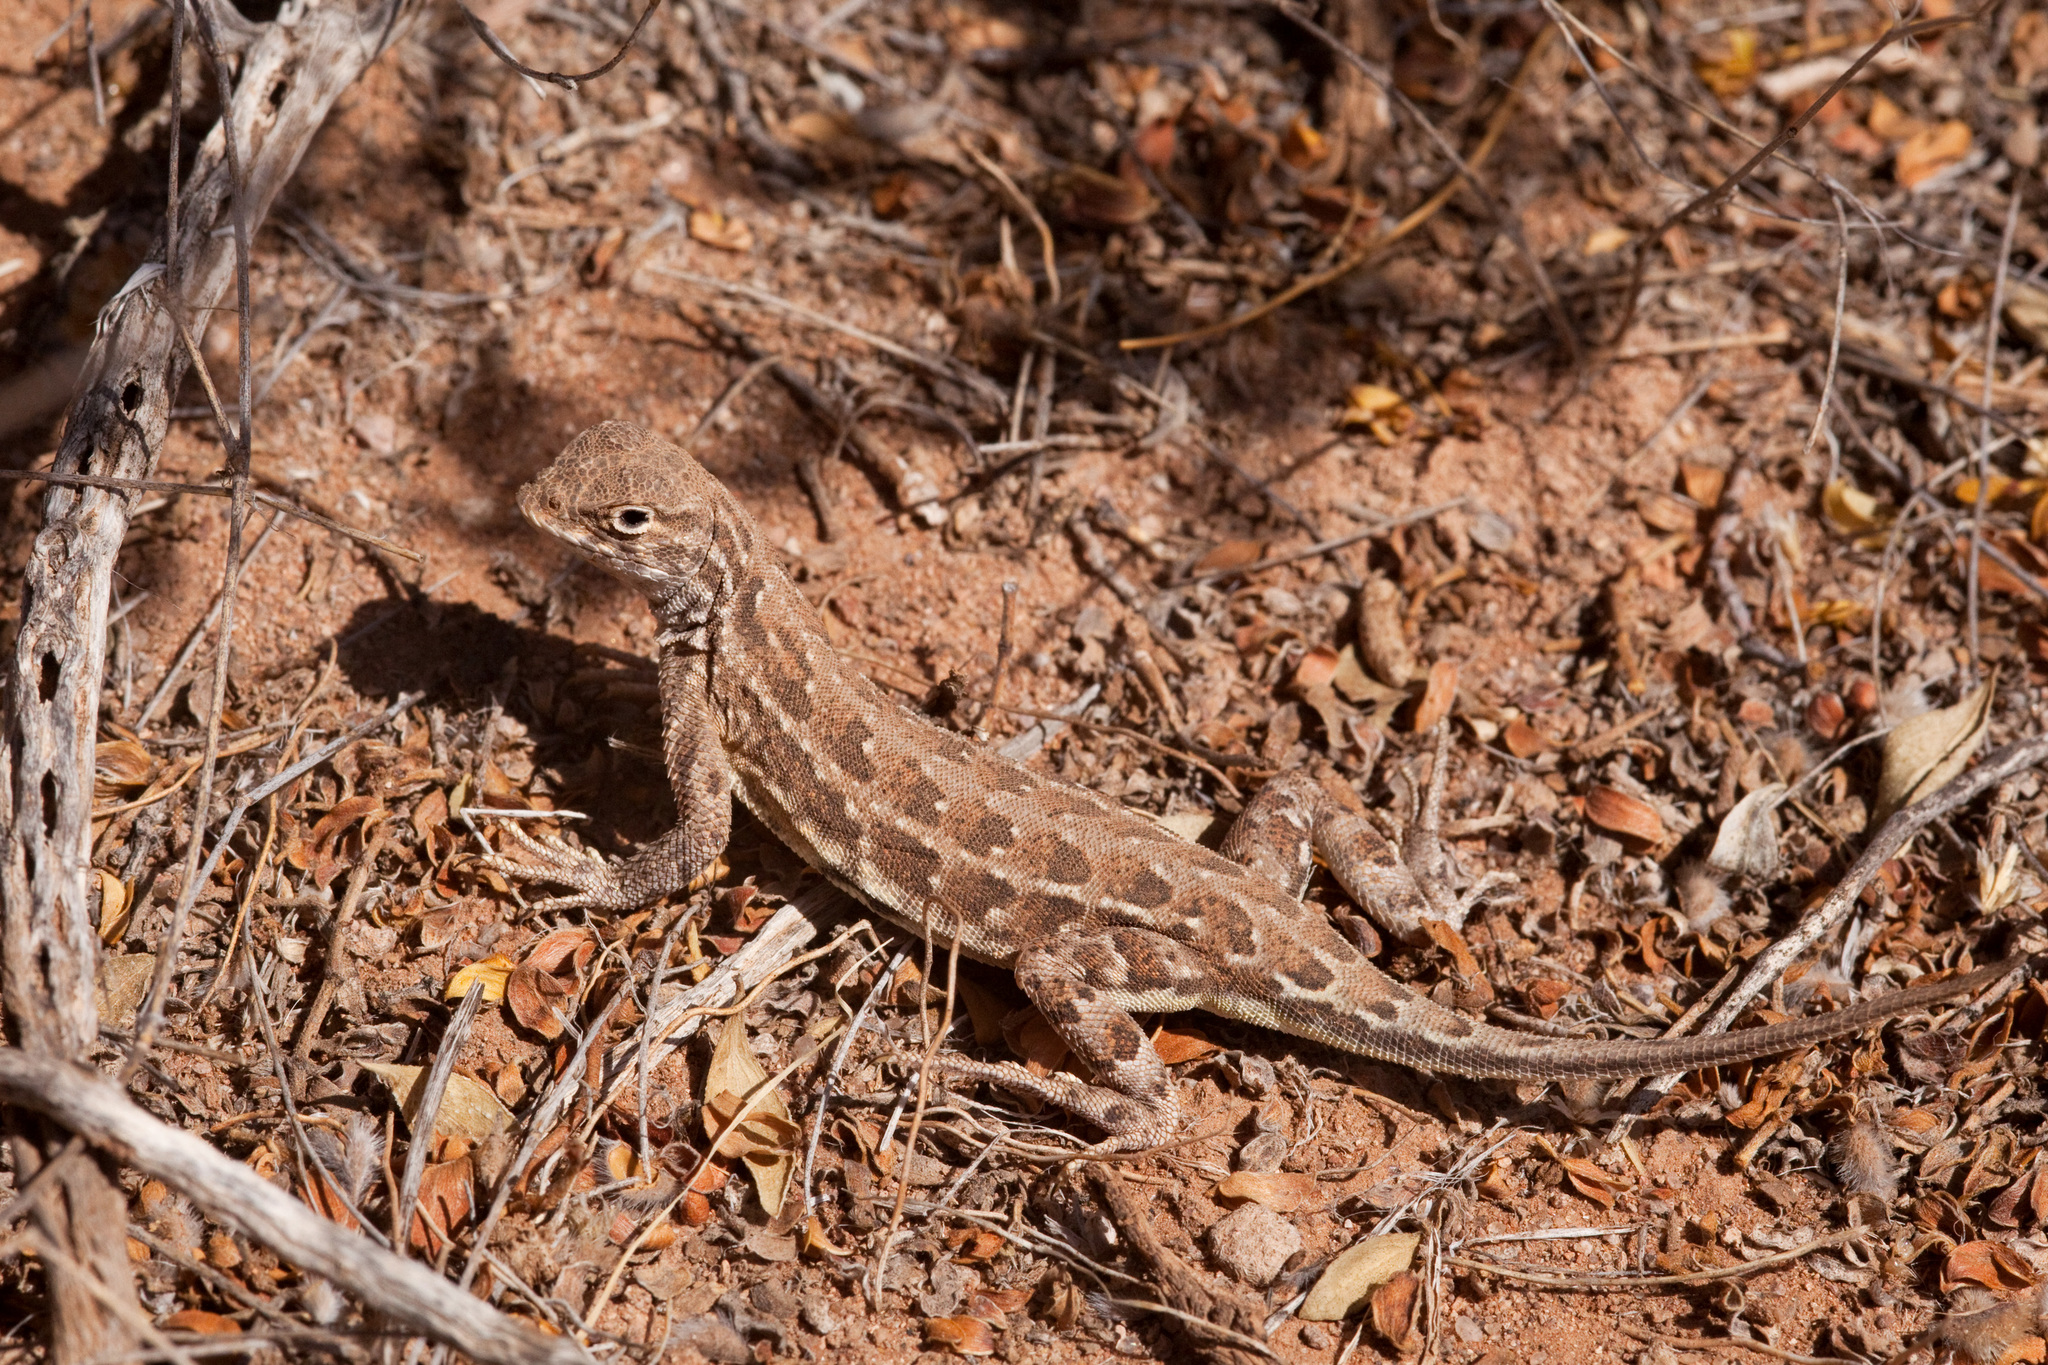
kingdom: Animalia
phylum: Chordata
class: Squamata
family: Phrynosomatidae
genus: Holbrookia
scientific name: Holbrookia maculata
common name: Lesser earless lizard
